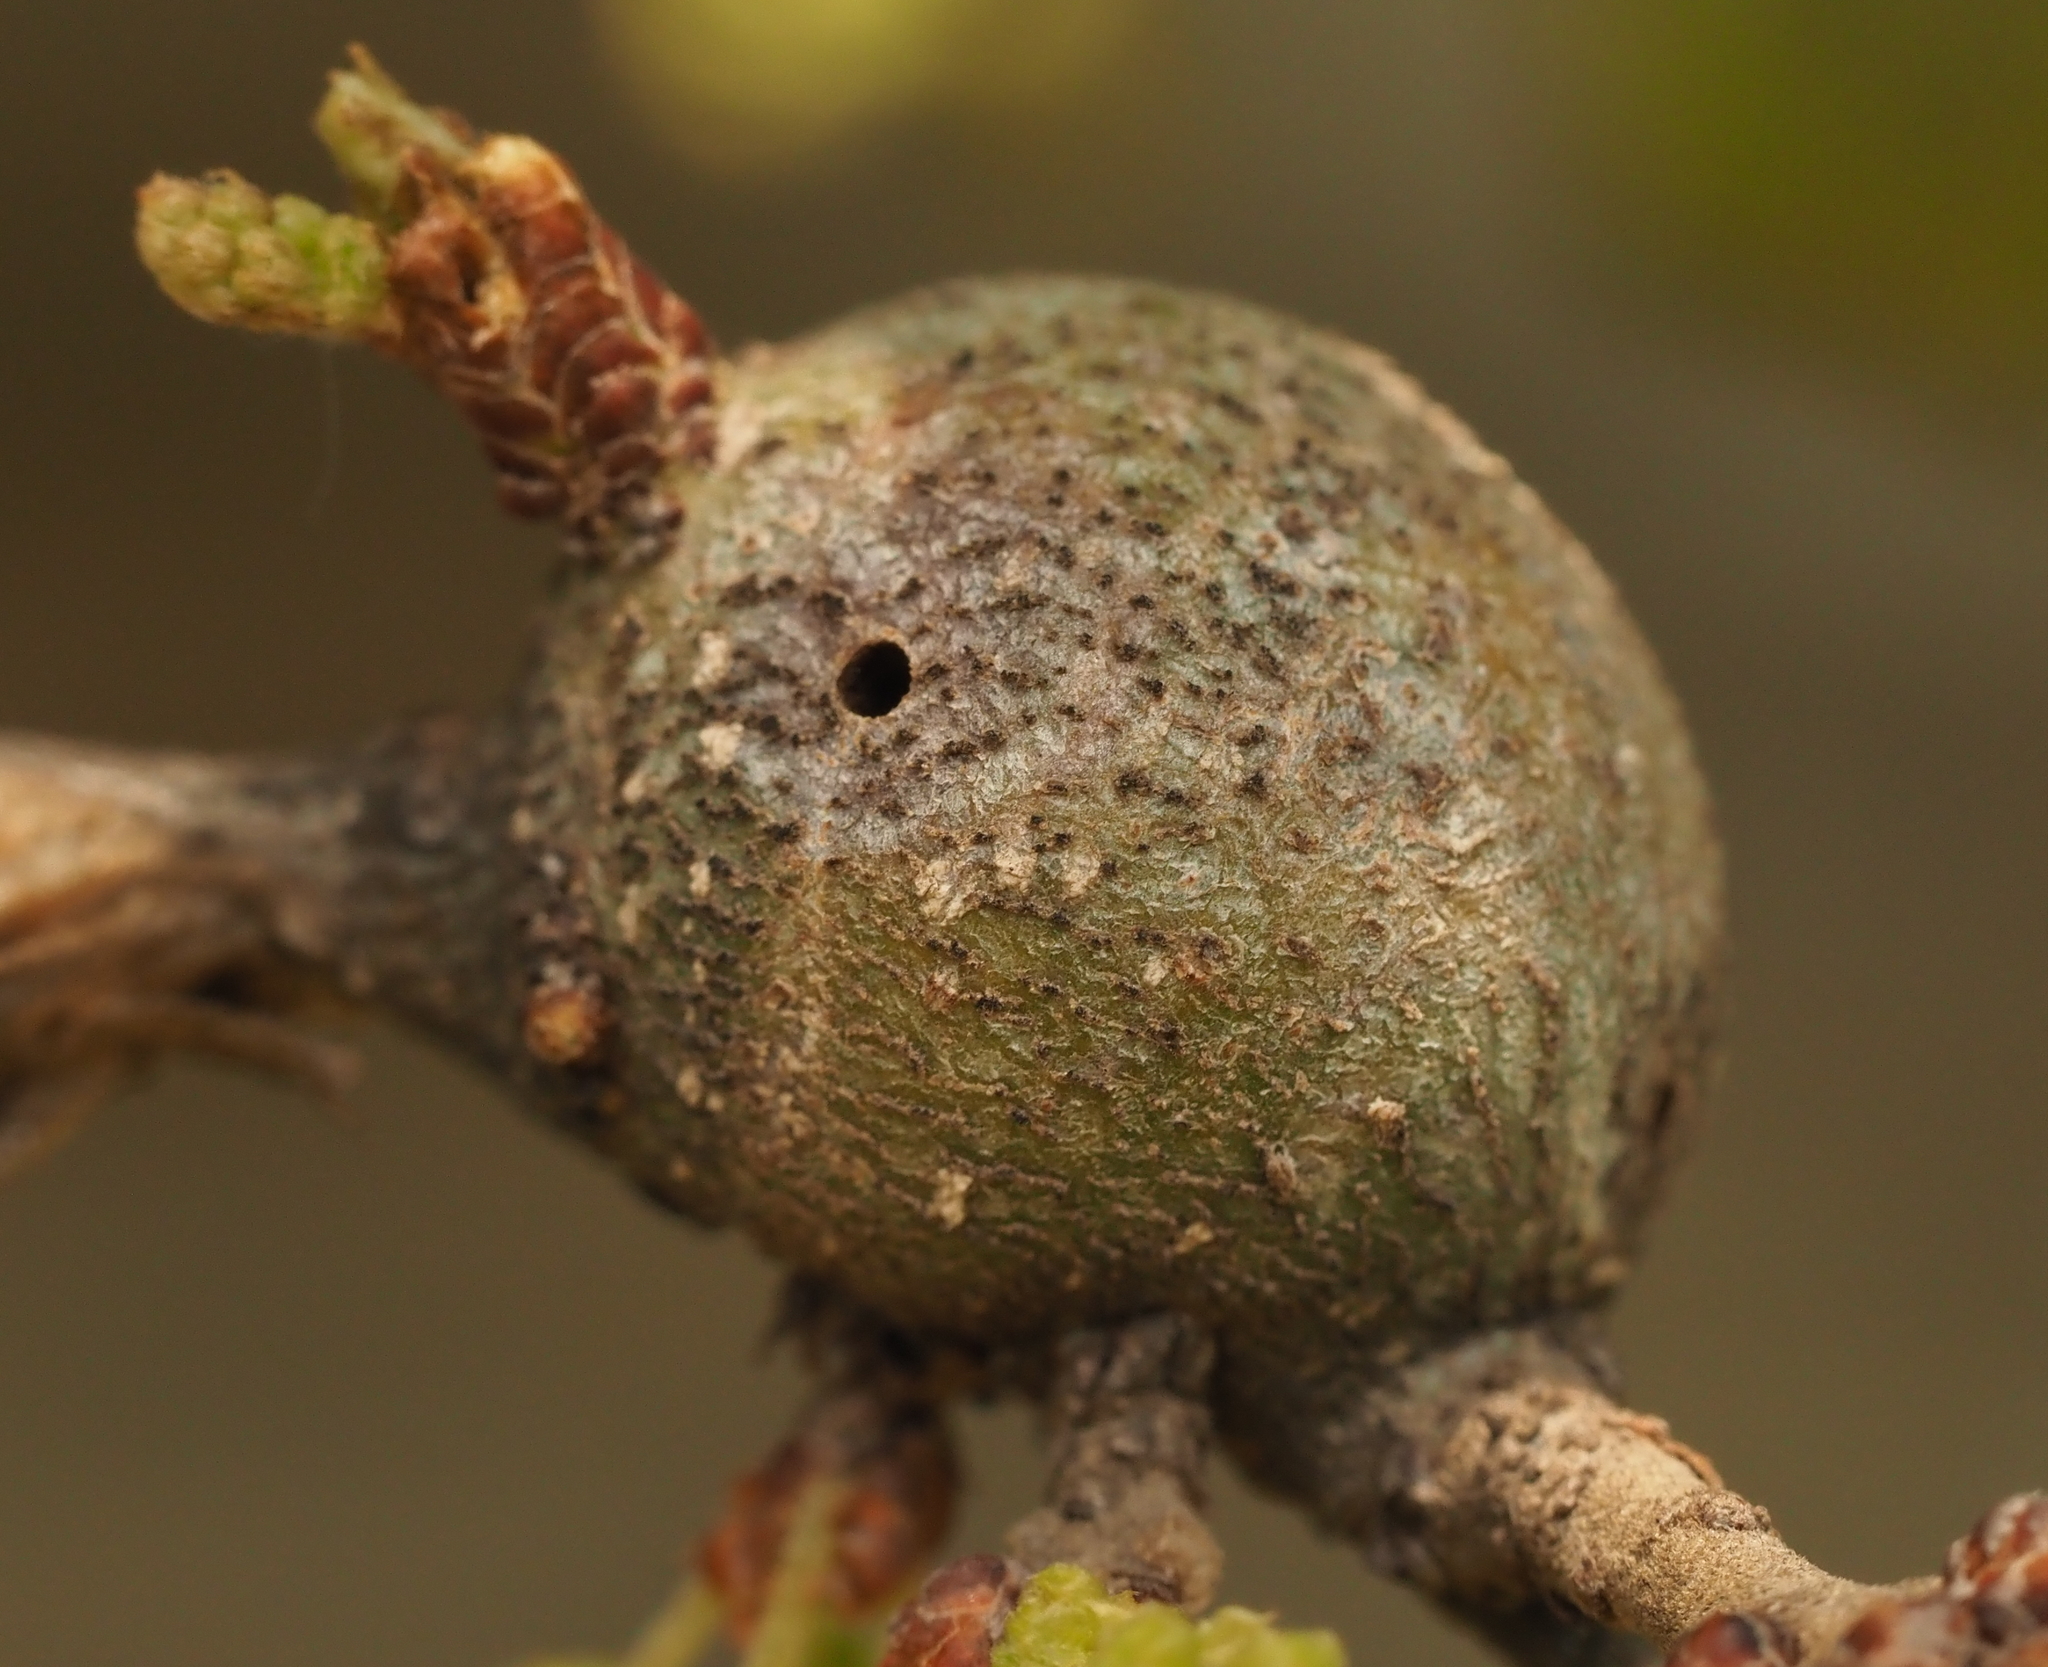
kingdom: Animalia
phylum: Arthropoda
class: Insecta
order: Hymenoptera
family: Cynipidae
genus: Callirhytis
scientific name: Callirhytis
